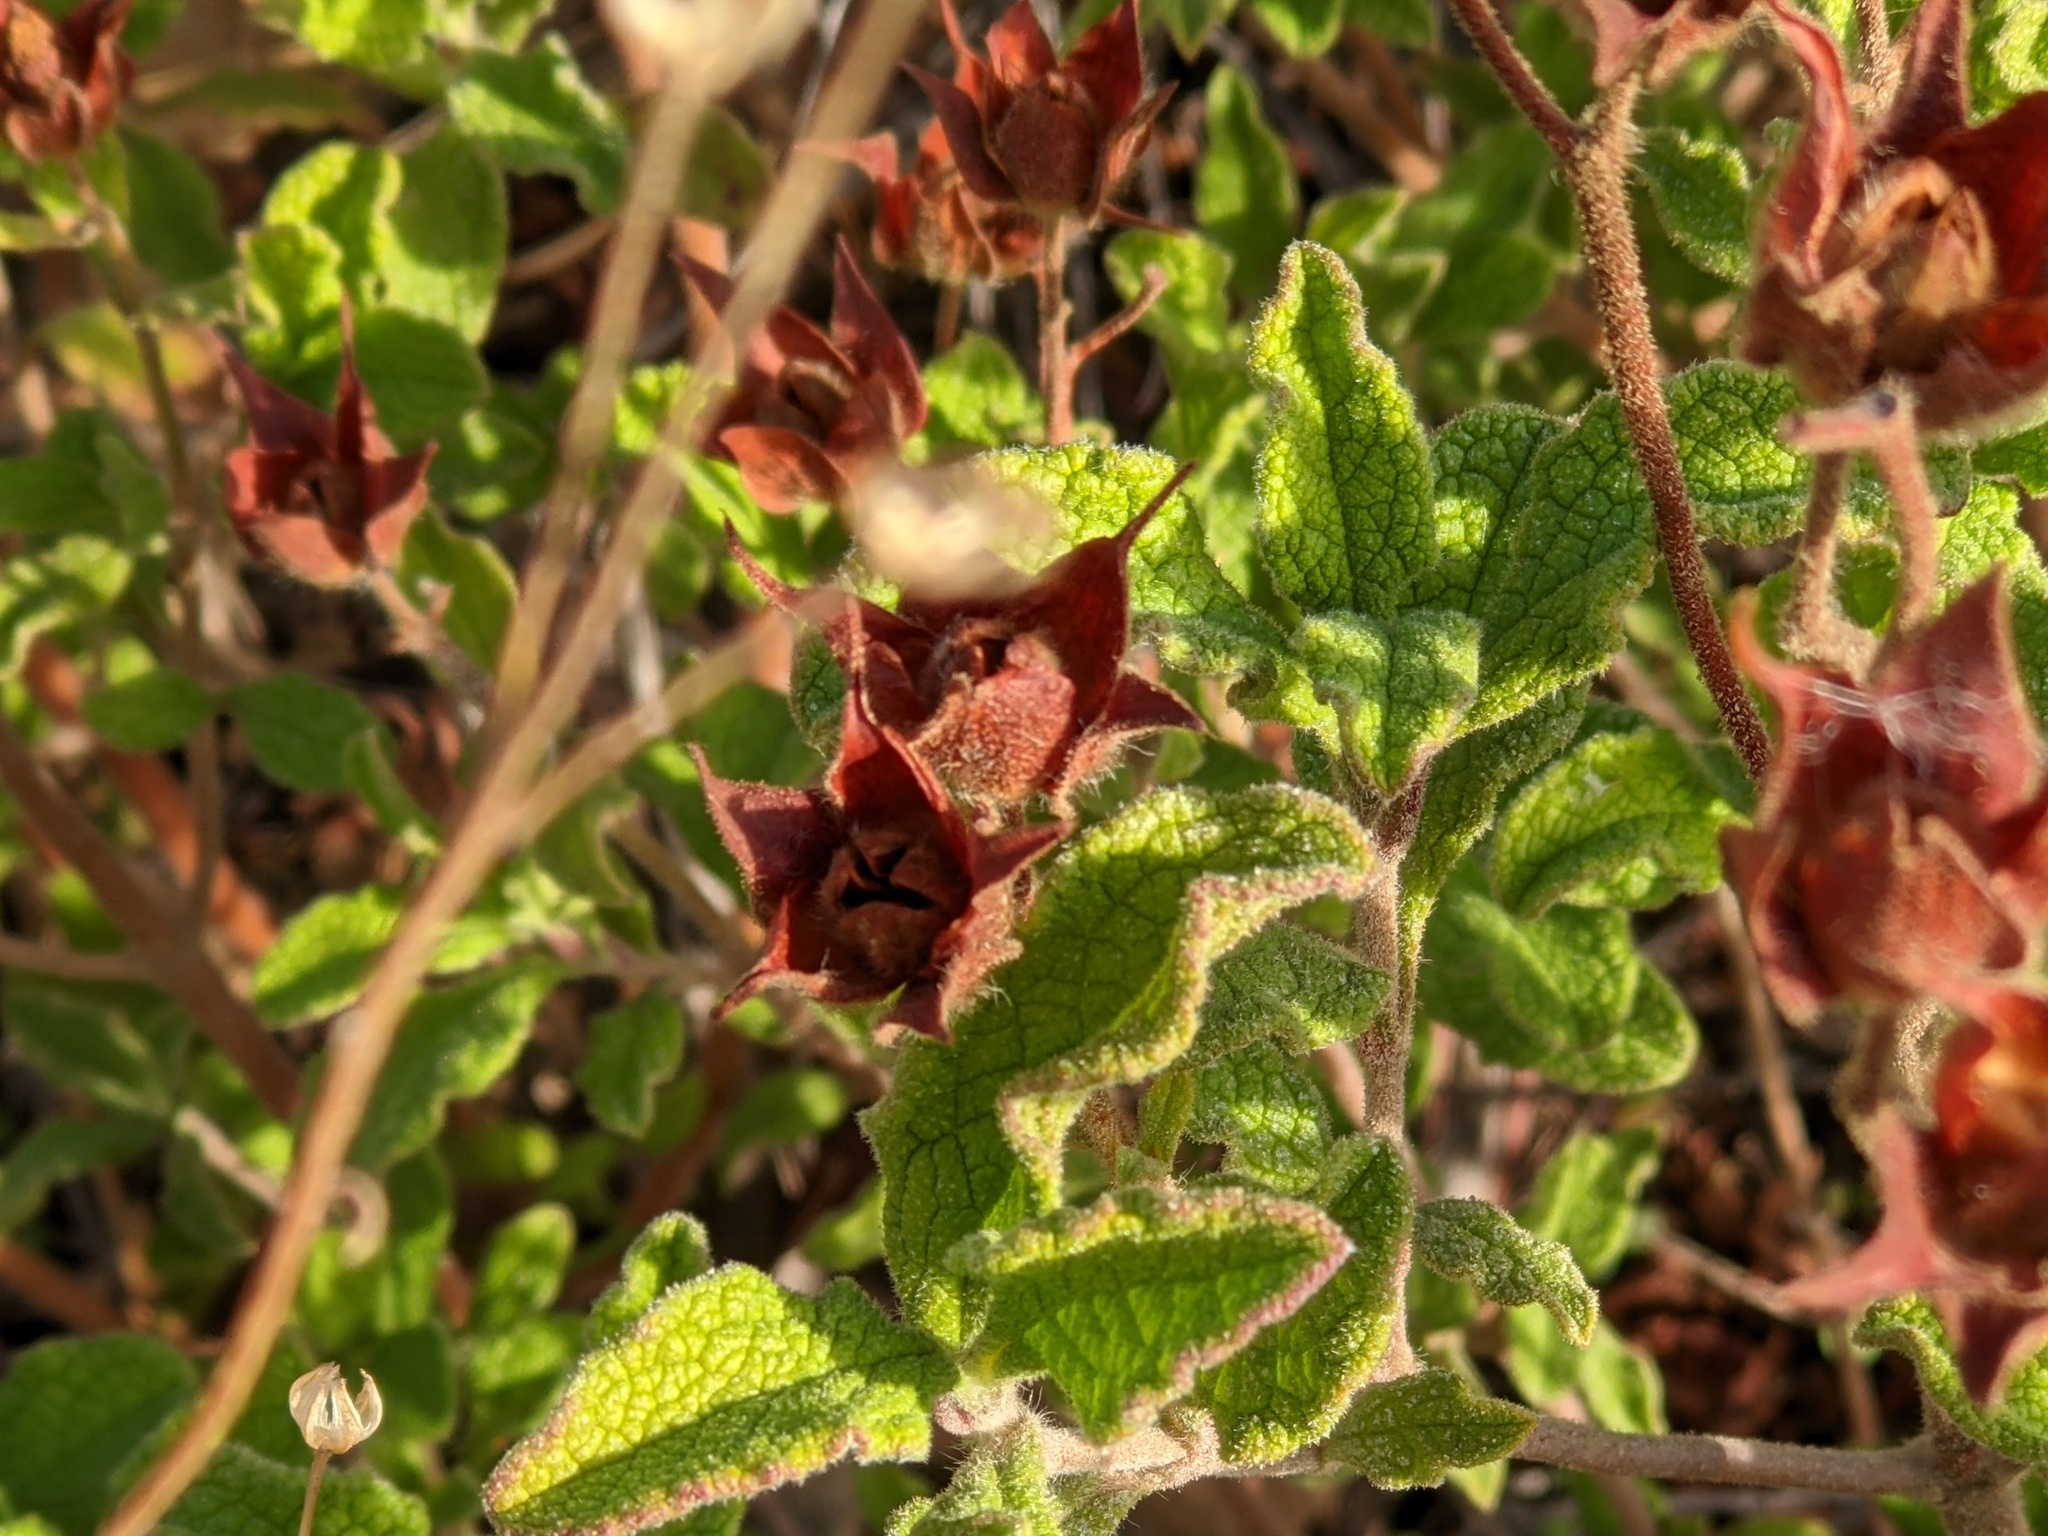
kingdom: Plantae
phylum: Tracheophyta
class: Magnoliopsida
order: Malvales
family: Cistaceae
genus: Cistus
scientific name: Cistus creticus
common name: Cretan rockrose
